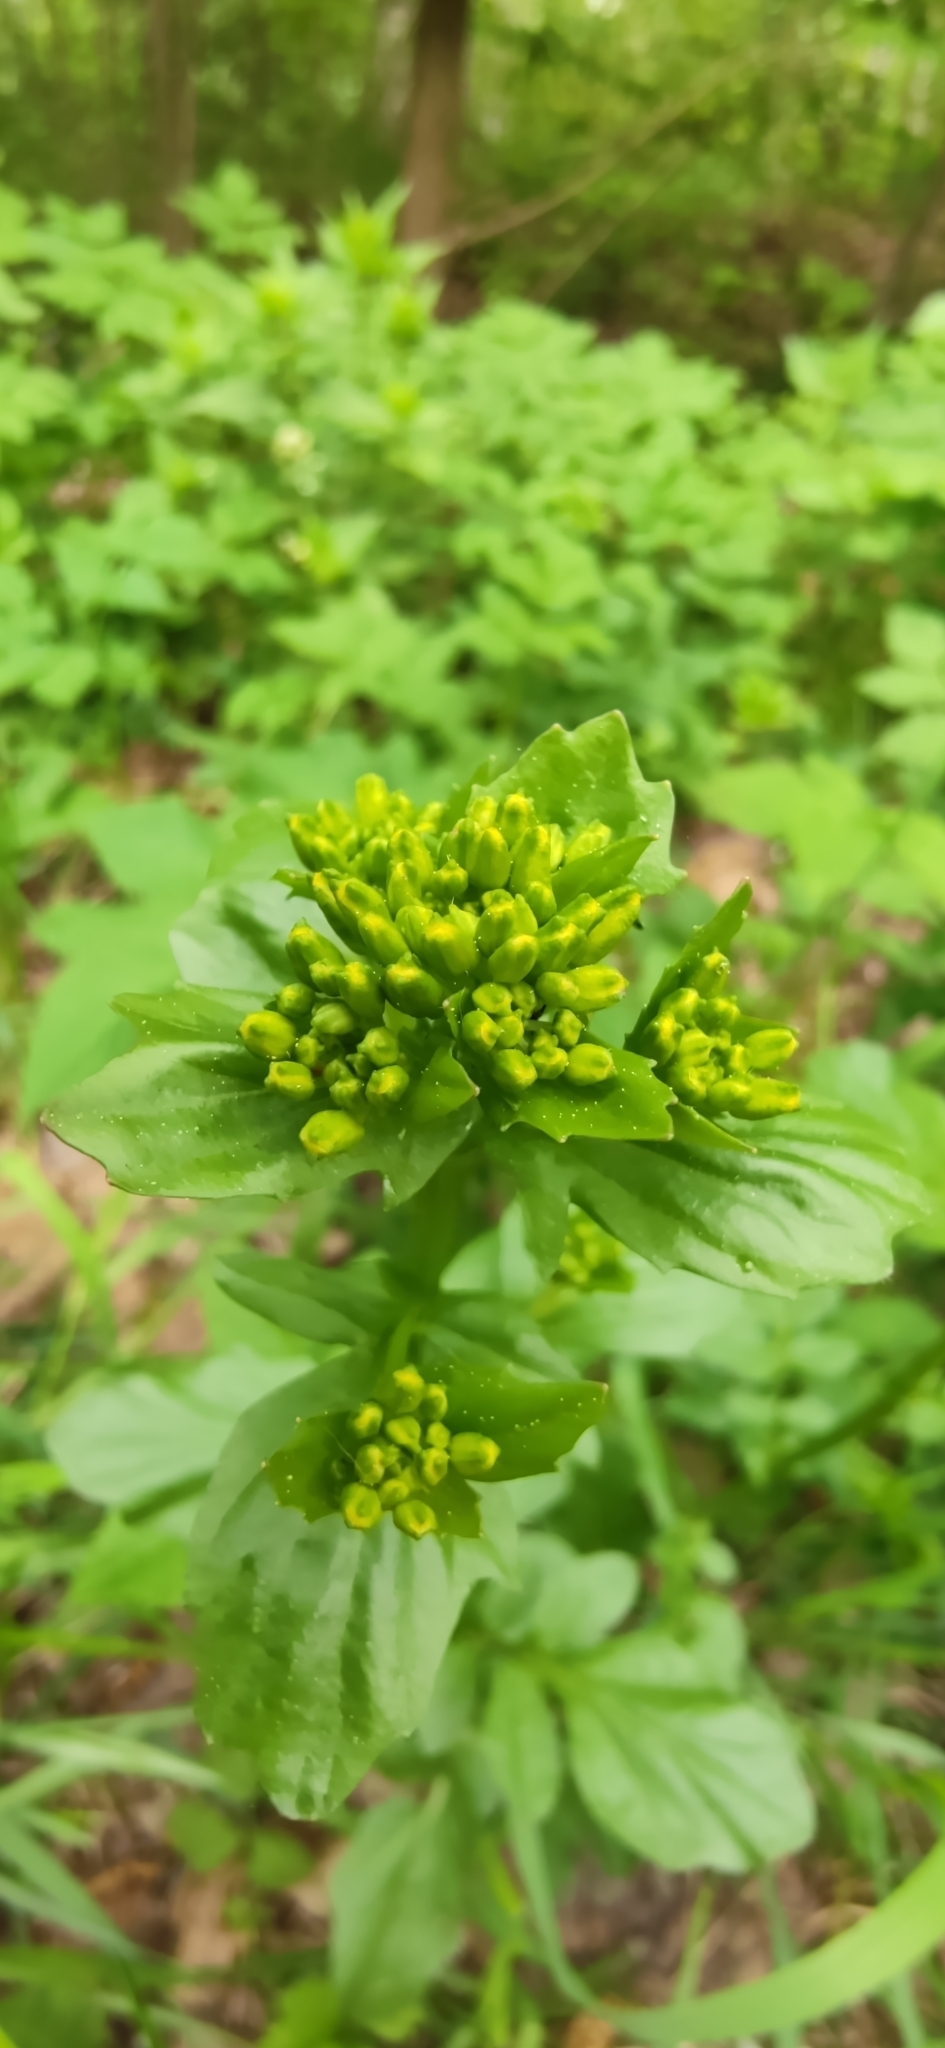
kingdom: Plantae
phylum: Tracheophyta
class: Magnoliopsida
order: Brassicales
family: Brassicaceae
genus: Barbarea
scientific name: Barbarea vulgaris
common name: Cressy-greens
